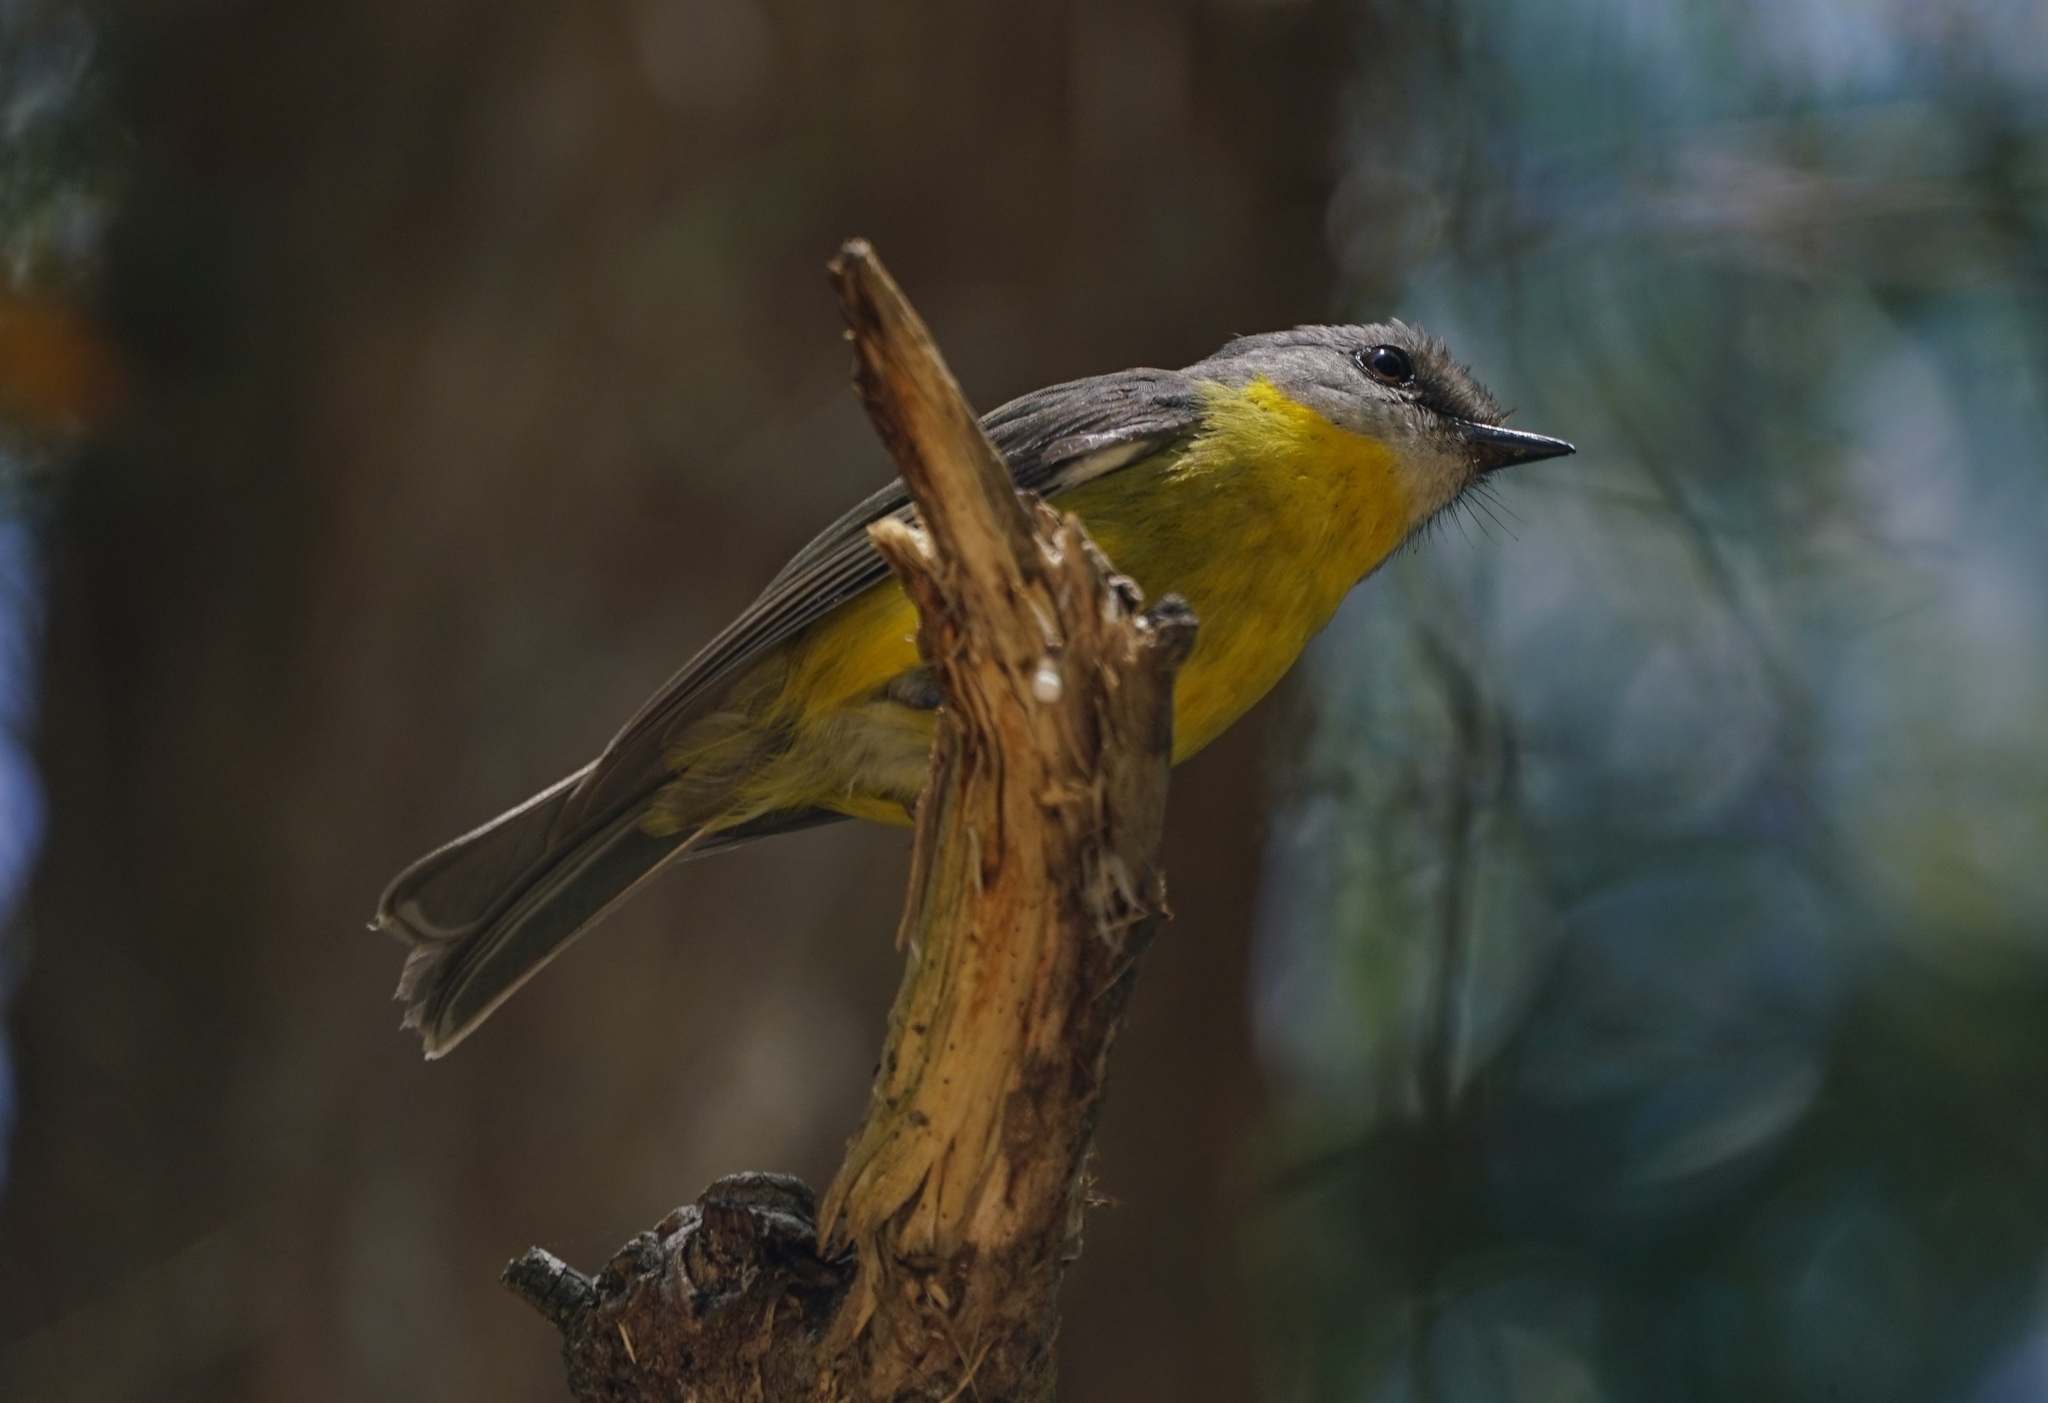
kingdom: Animalia
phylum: Chordata
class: Aves
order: Passeriformes
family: Petroicidae
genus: Eopsaltria
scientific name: Eopsaltria australis
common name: Eastern yellow robin
